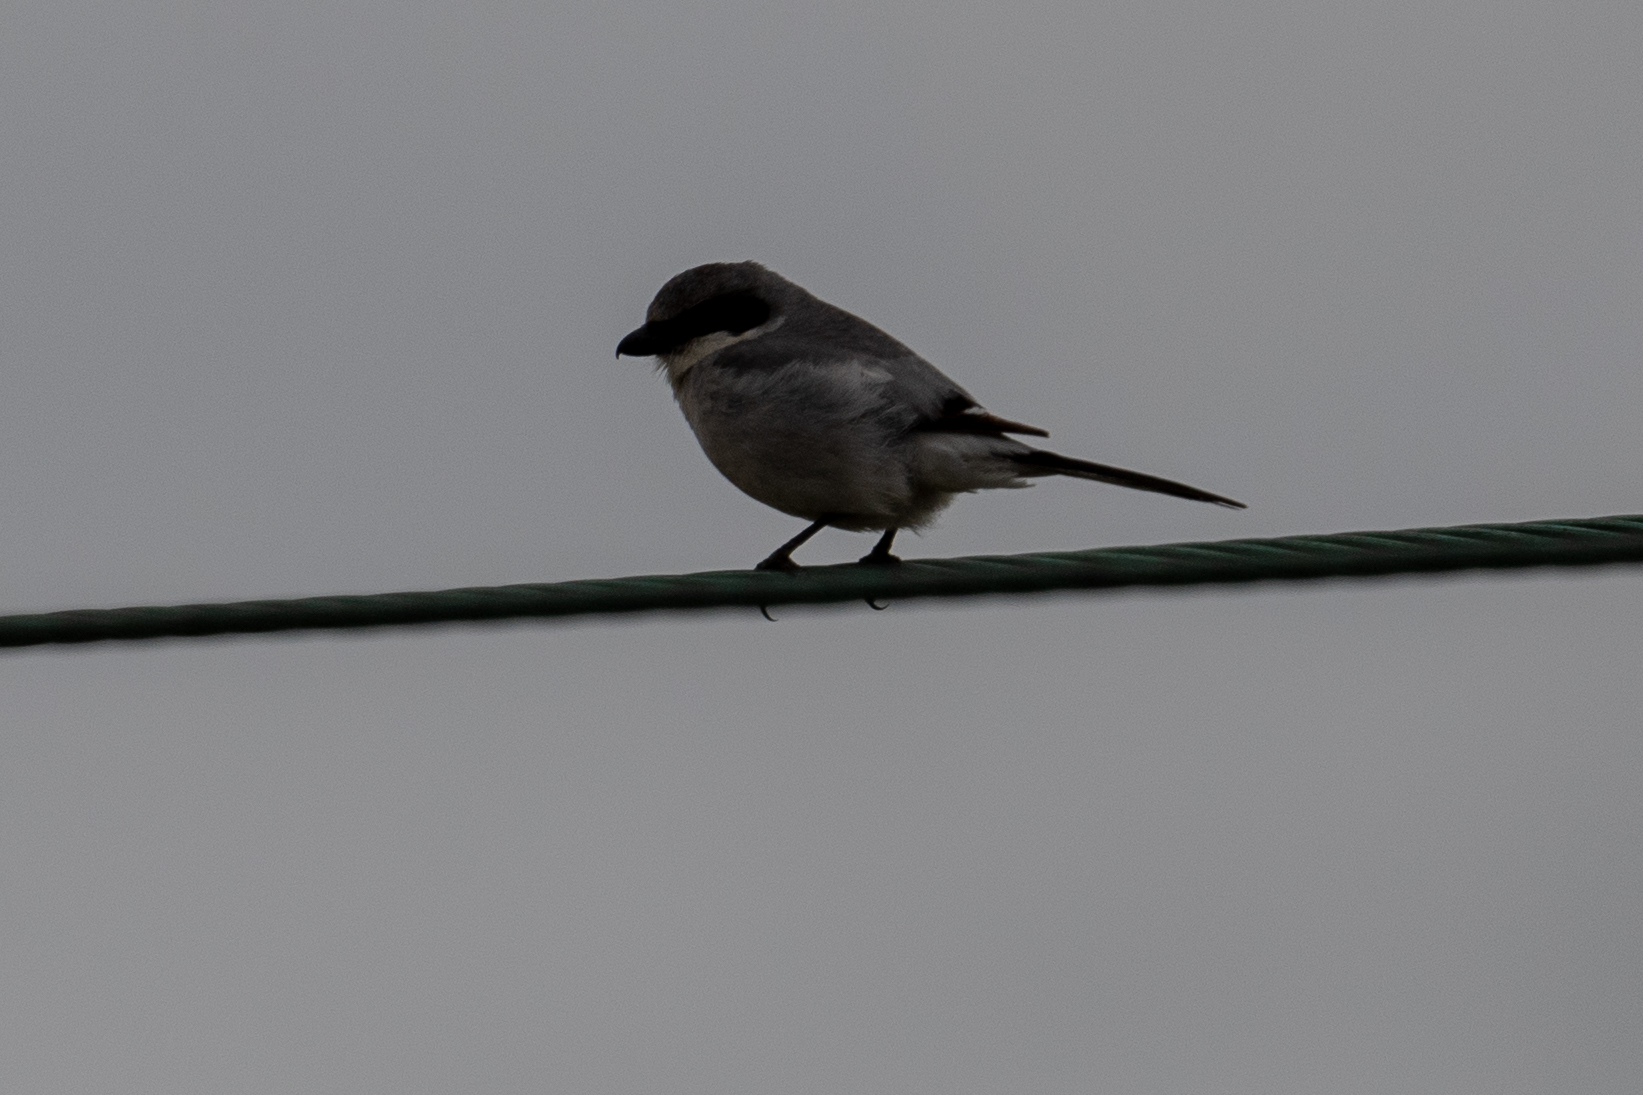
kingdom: Animalia
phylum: Chordata
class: Aves
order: Passeriformes
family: Laniidae
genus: Lanius
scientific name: Lanius ludovicianus
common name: Loggerhead shrike
